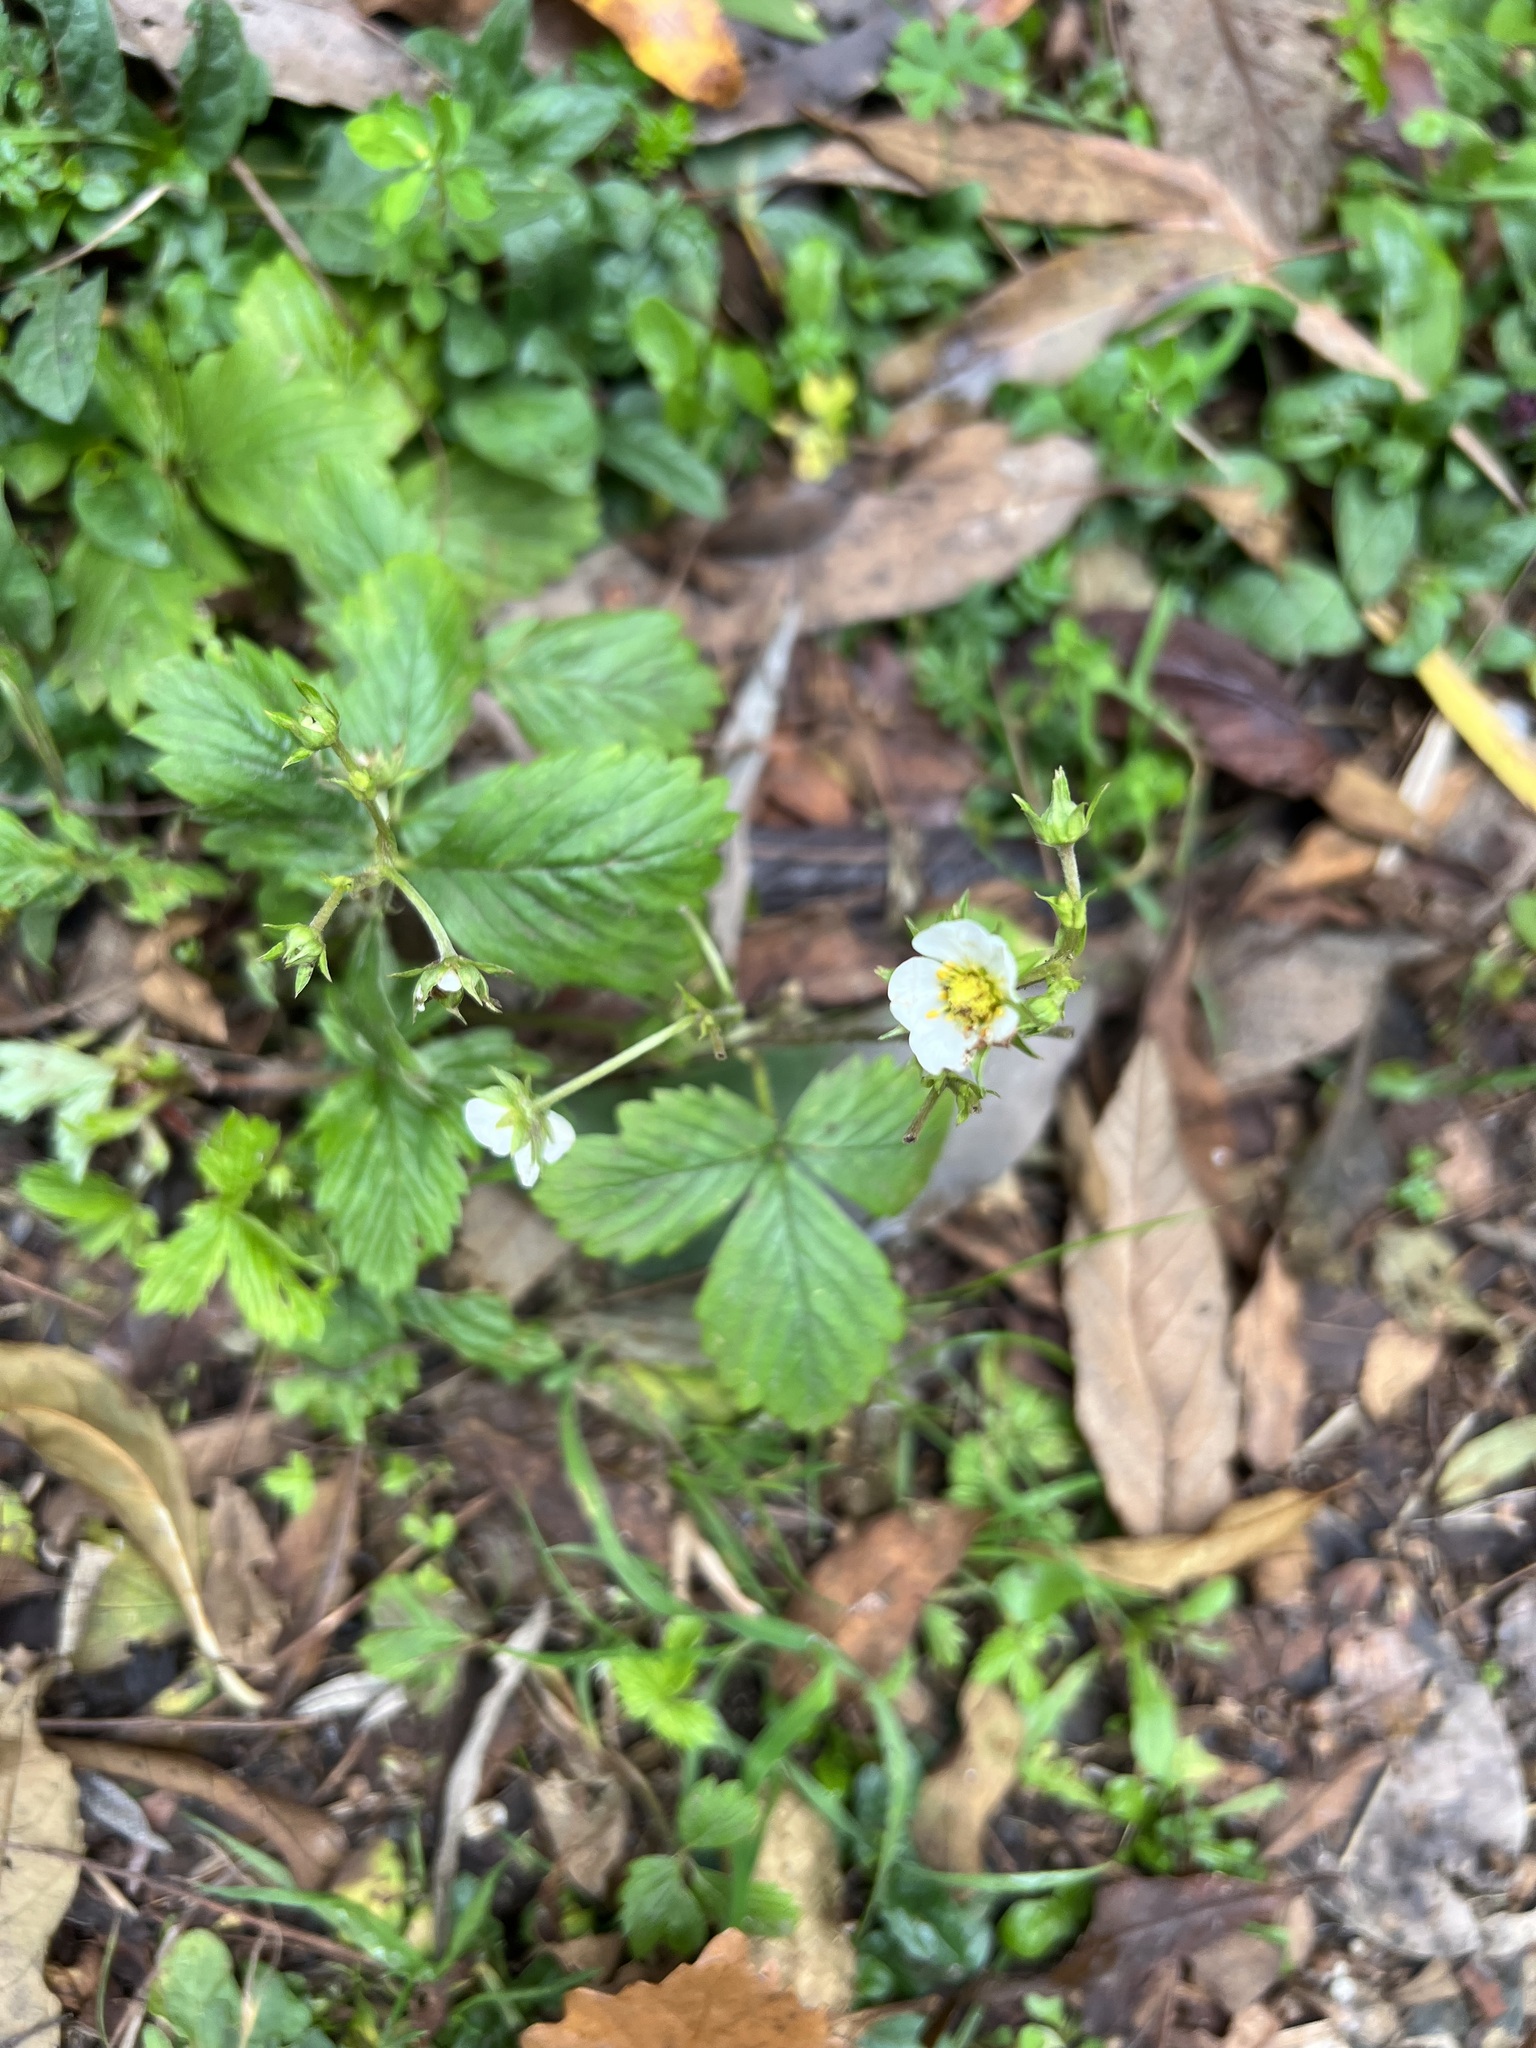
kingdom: Plantae
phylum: Tracheophyta
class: Magnoliopsida
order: Rosales
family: Rosaceae
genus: Fragaria
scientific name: Fragaria vesca
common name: Wild strawberry
